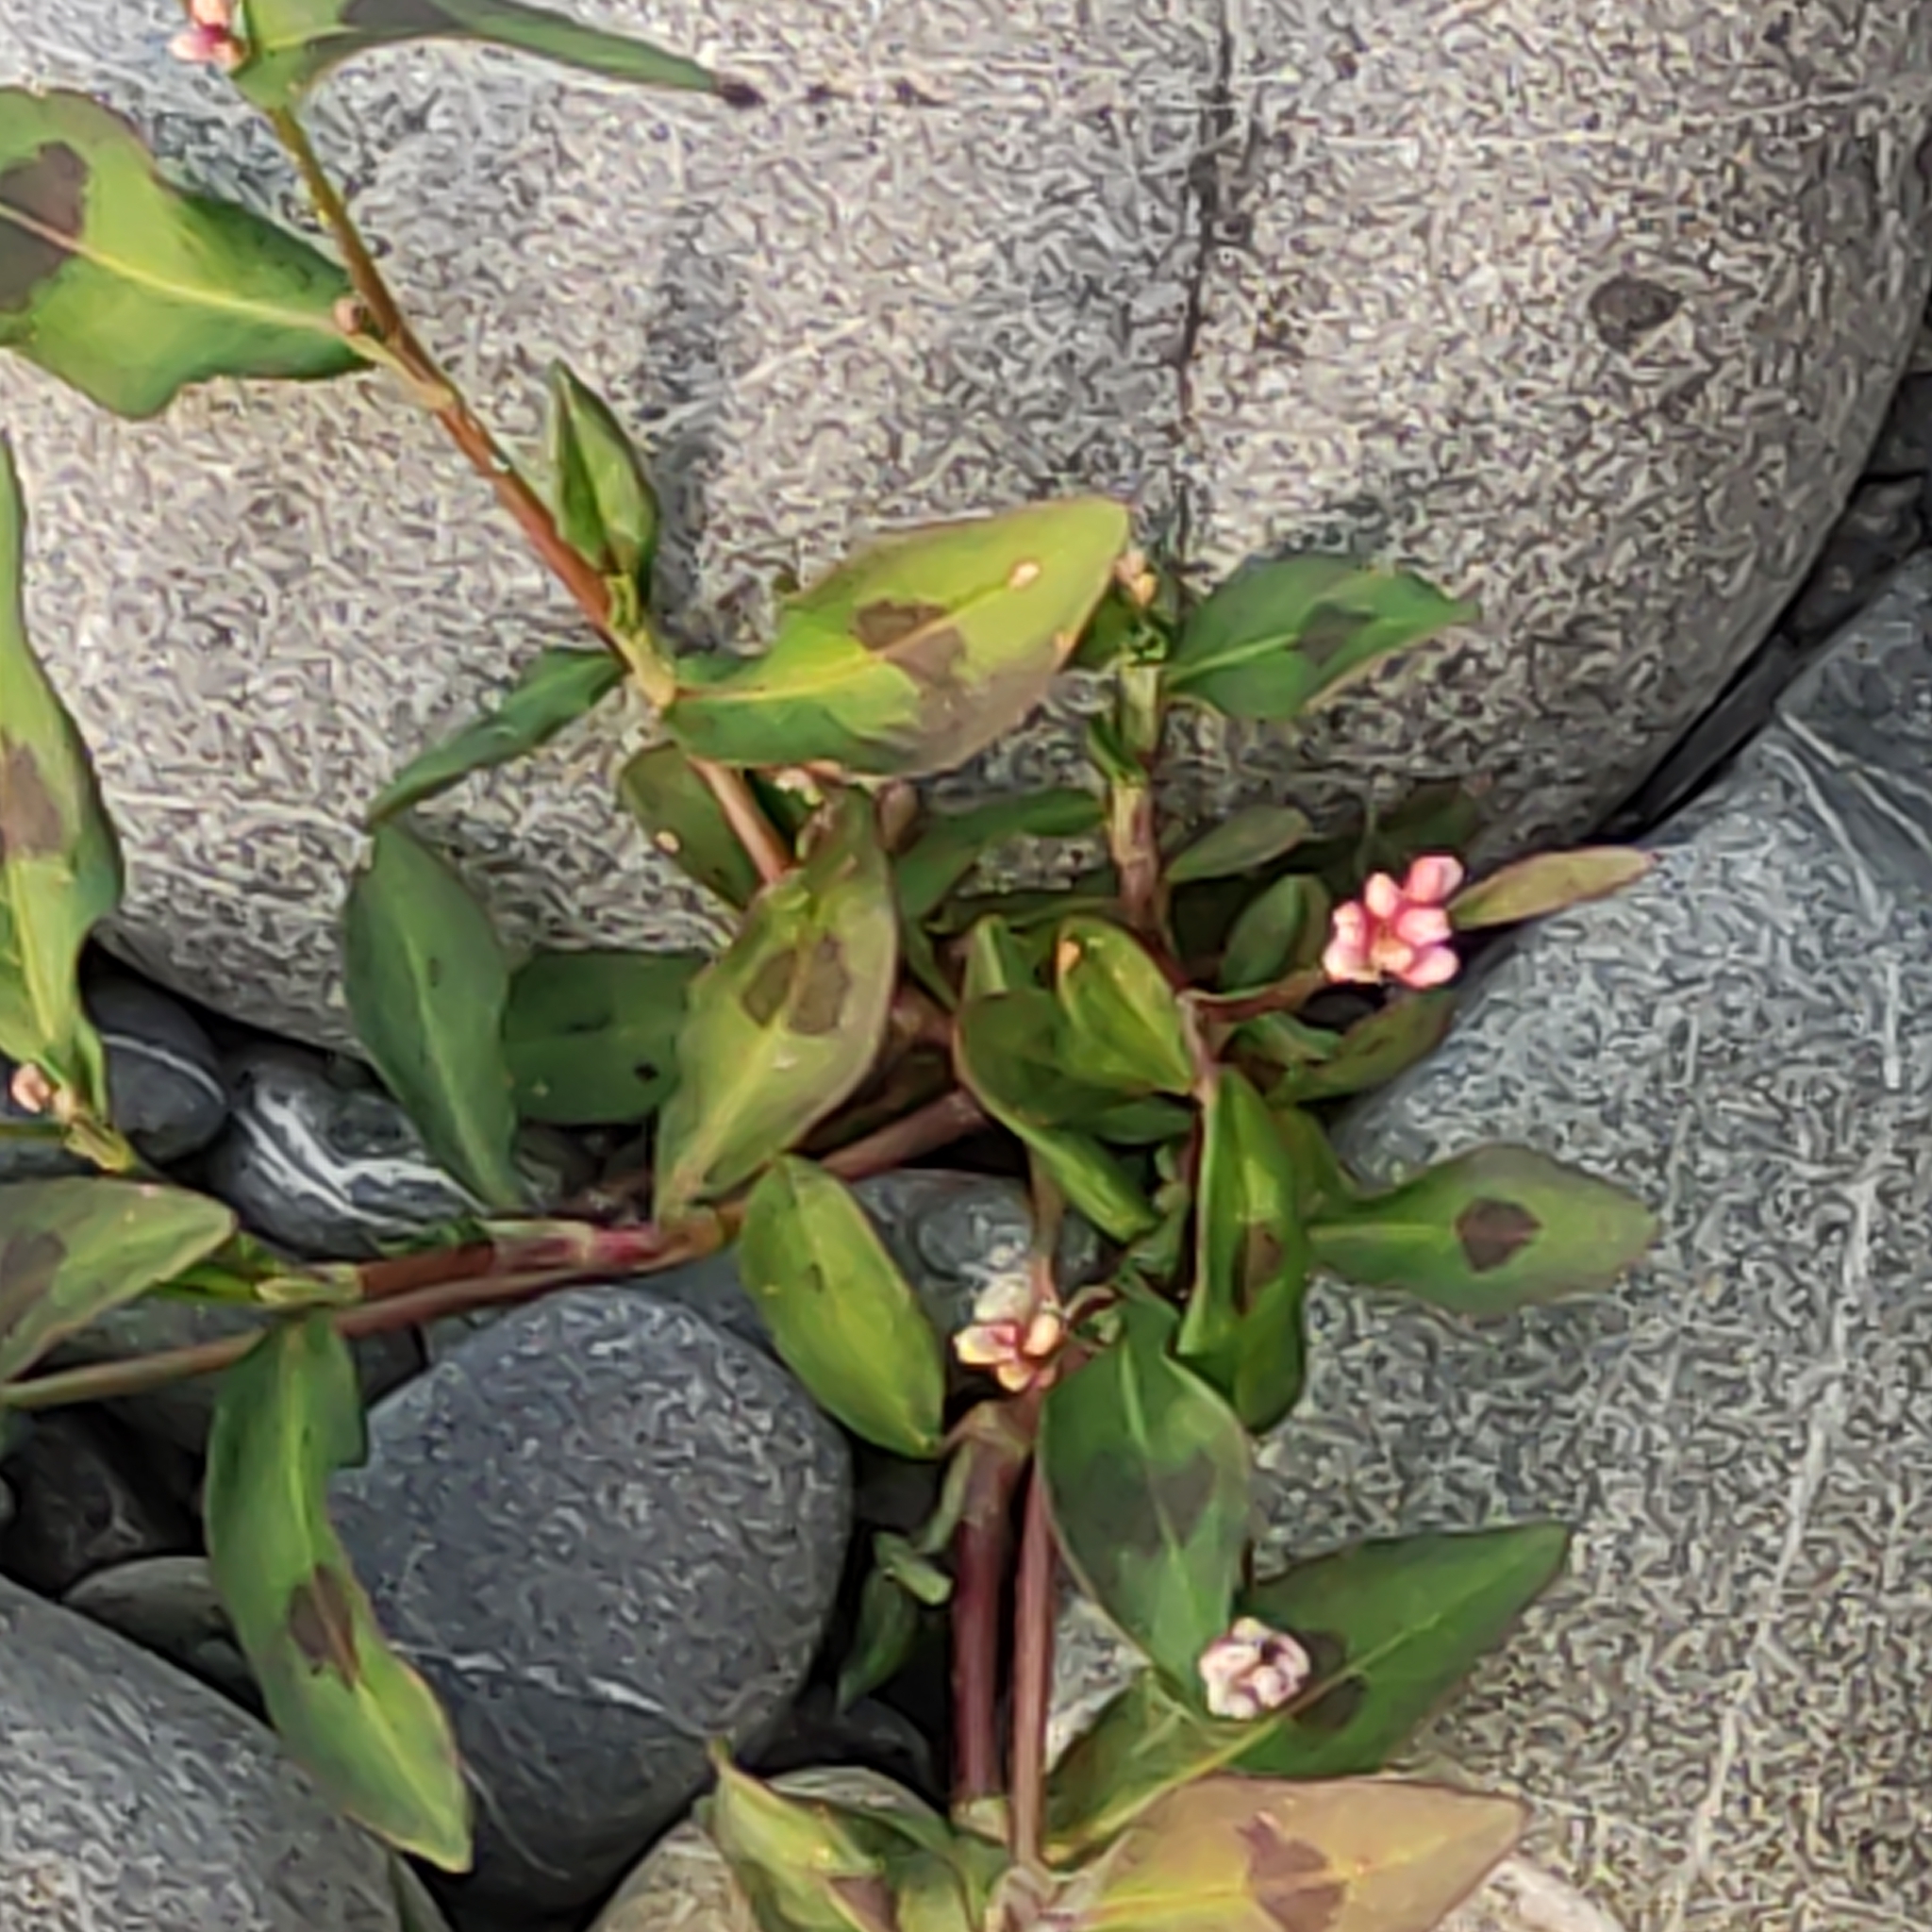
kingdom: Plantae
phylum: Tracheophyta
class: Magnoliopsida
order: Caryophyllales
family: Polygonaceae
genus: Persicaria
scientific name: Persicaria maculosa
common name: Redshank
